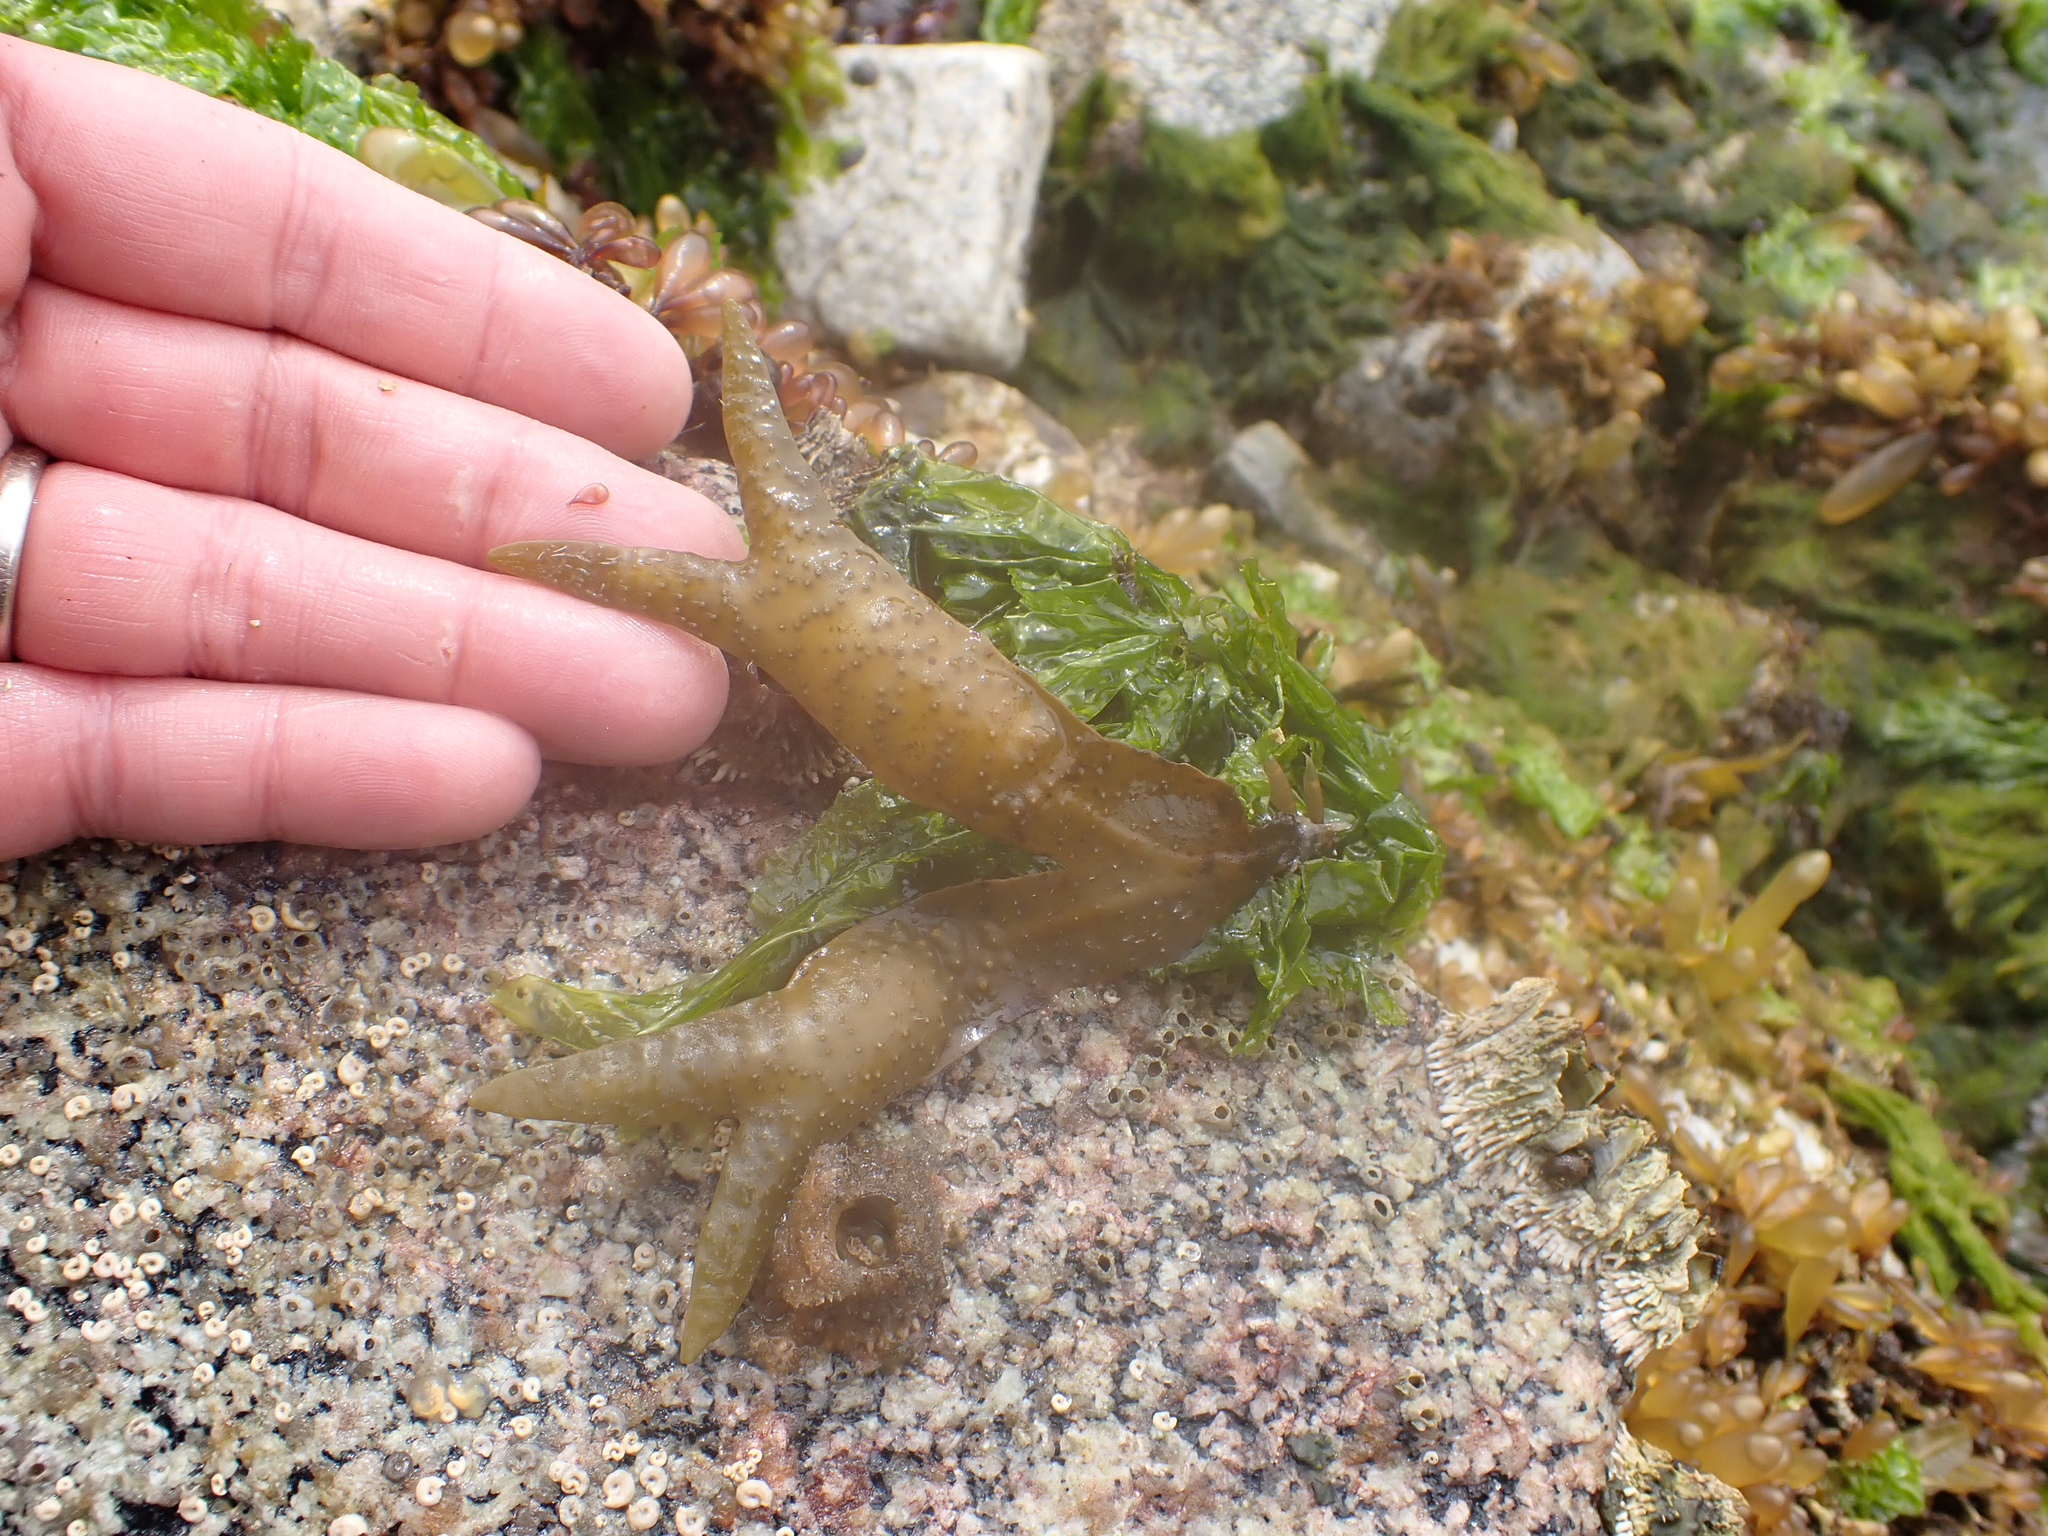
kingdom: Chromista
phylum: Ochrophyta
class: Phaeophyceae
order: Fucales
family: Fucaceae
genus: Fucus
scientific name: Fucus distichus
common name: Rockweed
